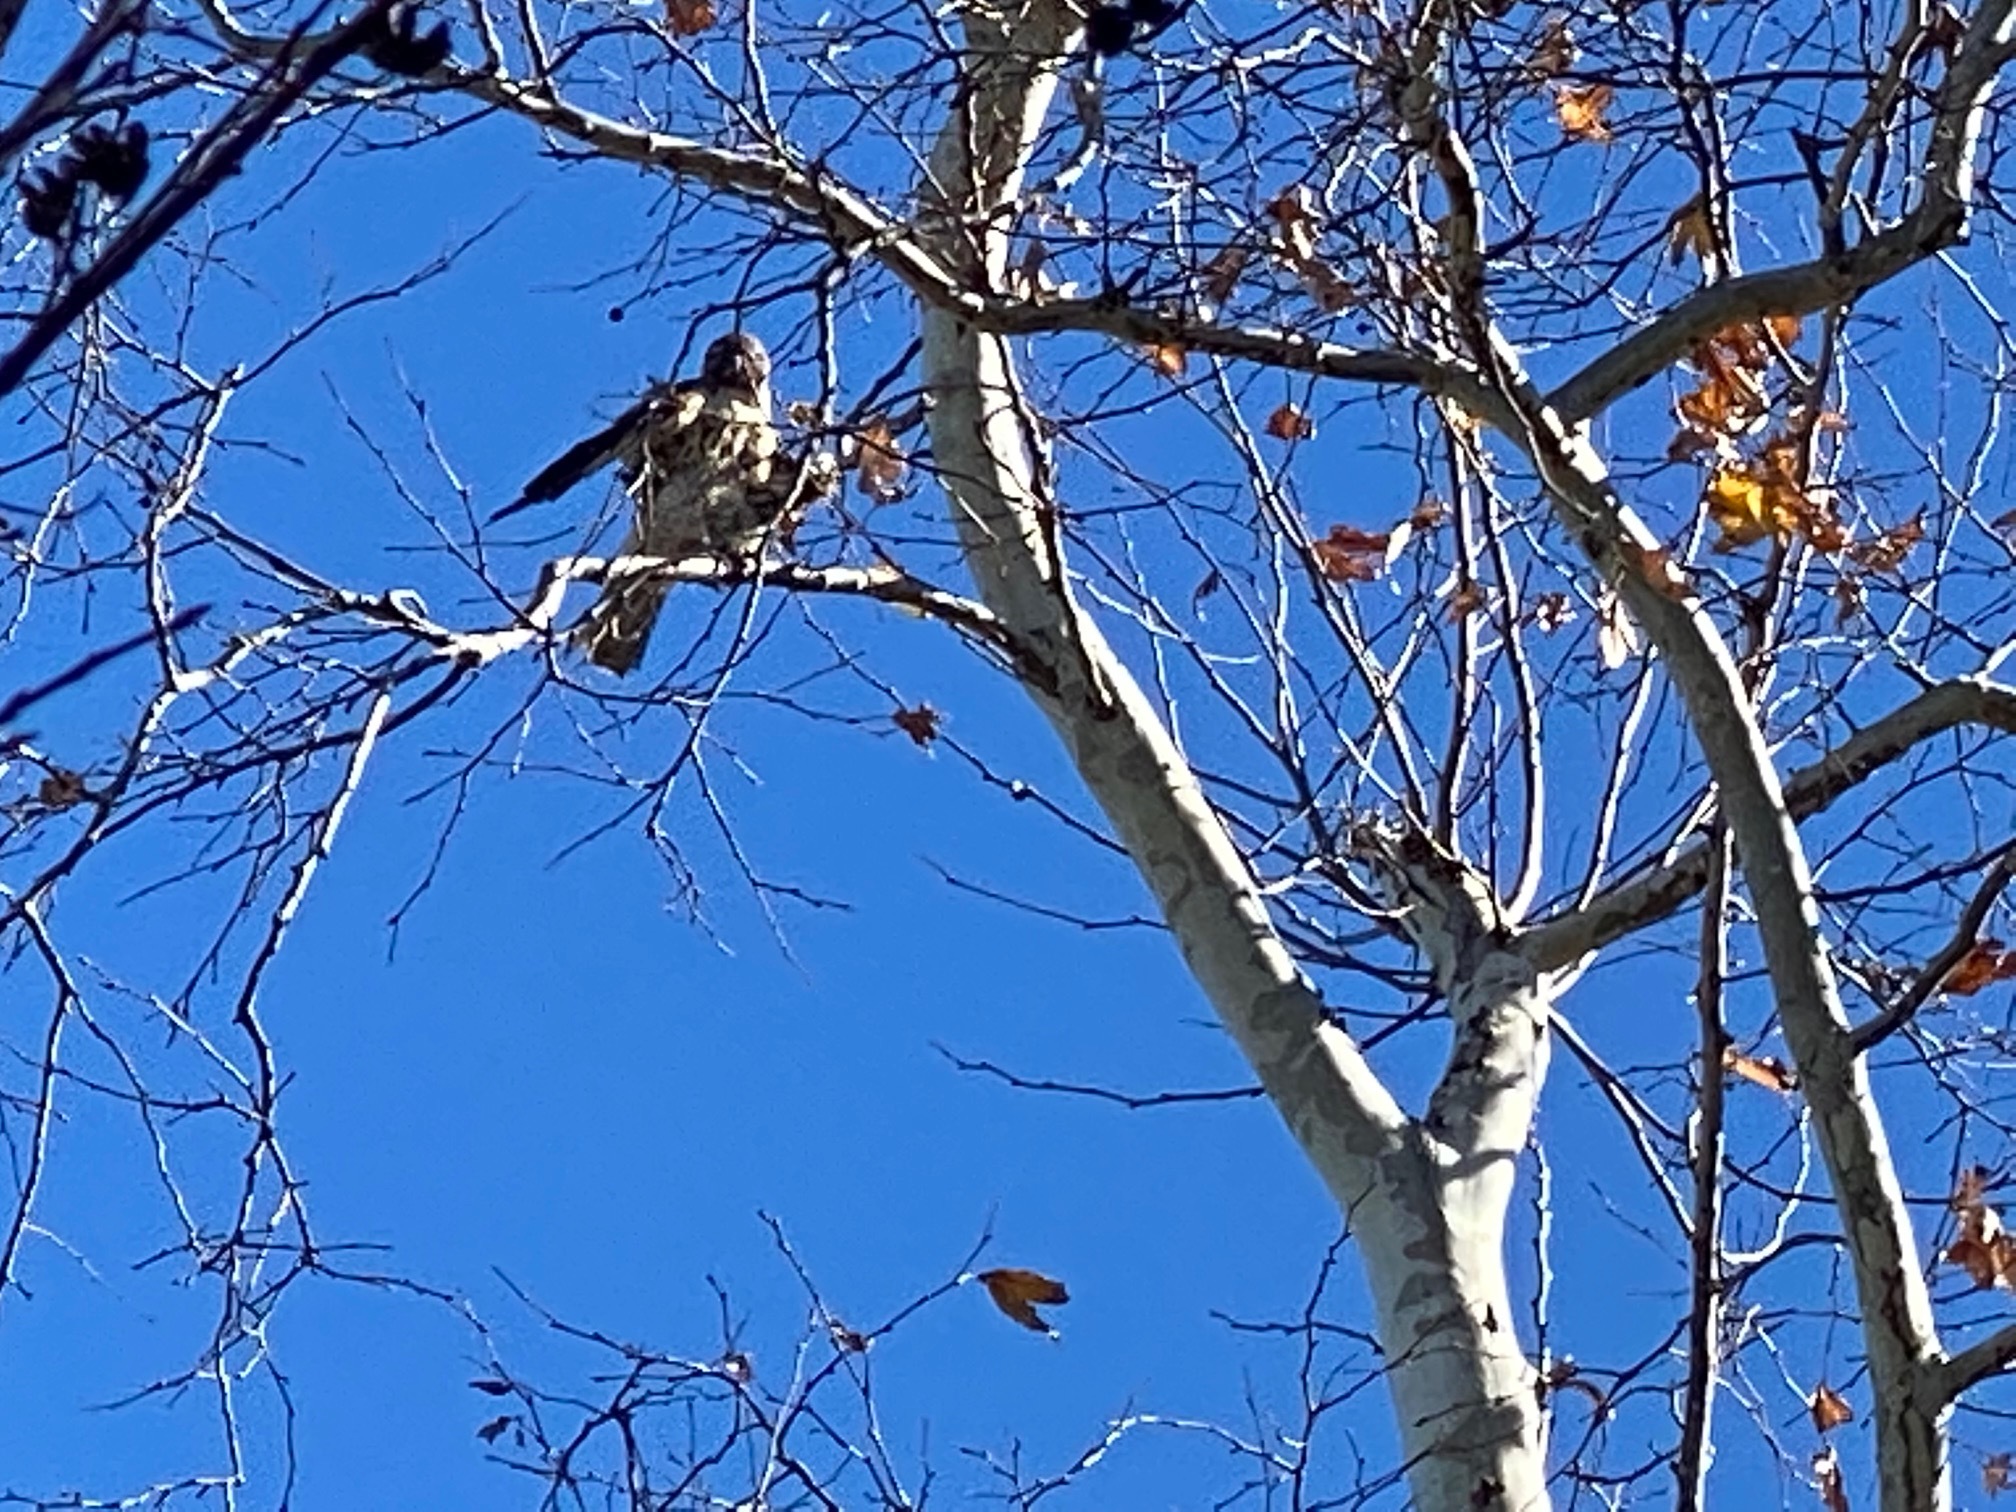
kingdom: Animalia
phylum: Chordata
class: Aves
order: Accipitriformes
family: Accipitridae
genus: Buteo
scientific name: Buteo jamaicensis
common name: Red-tailed hawk
